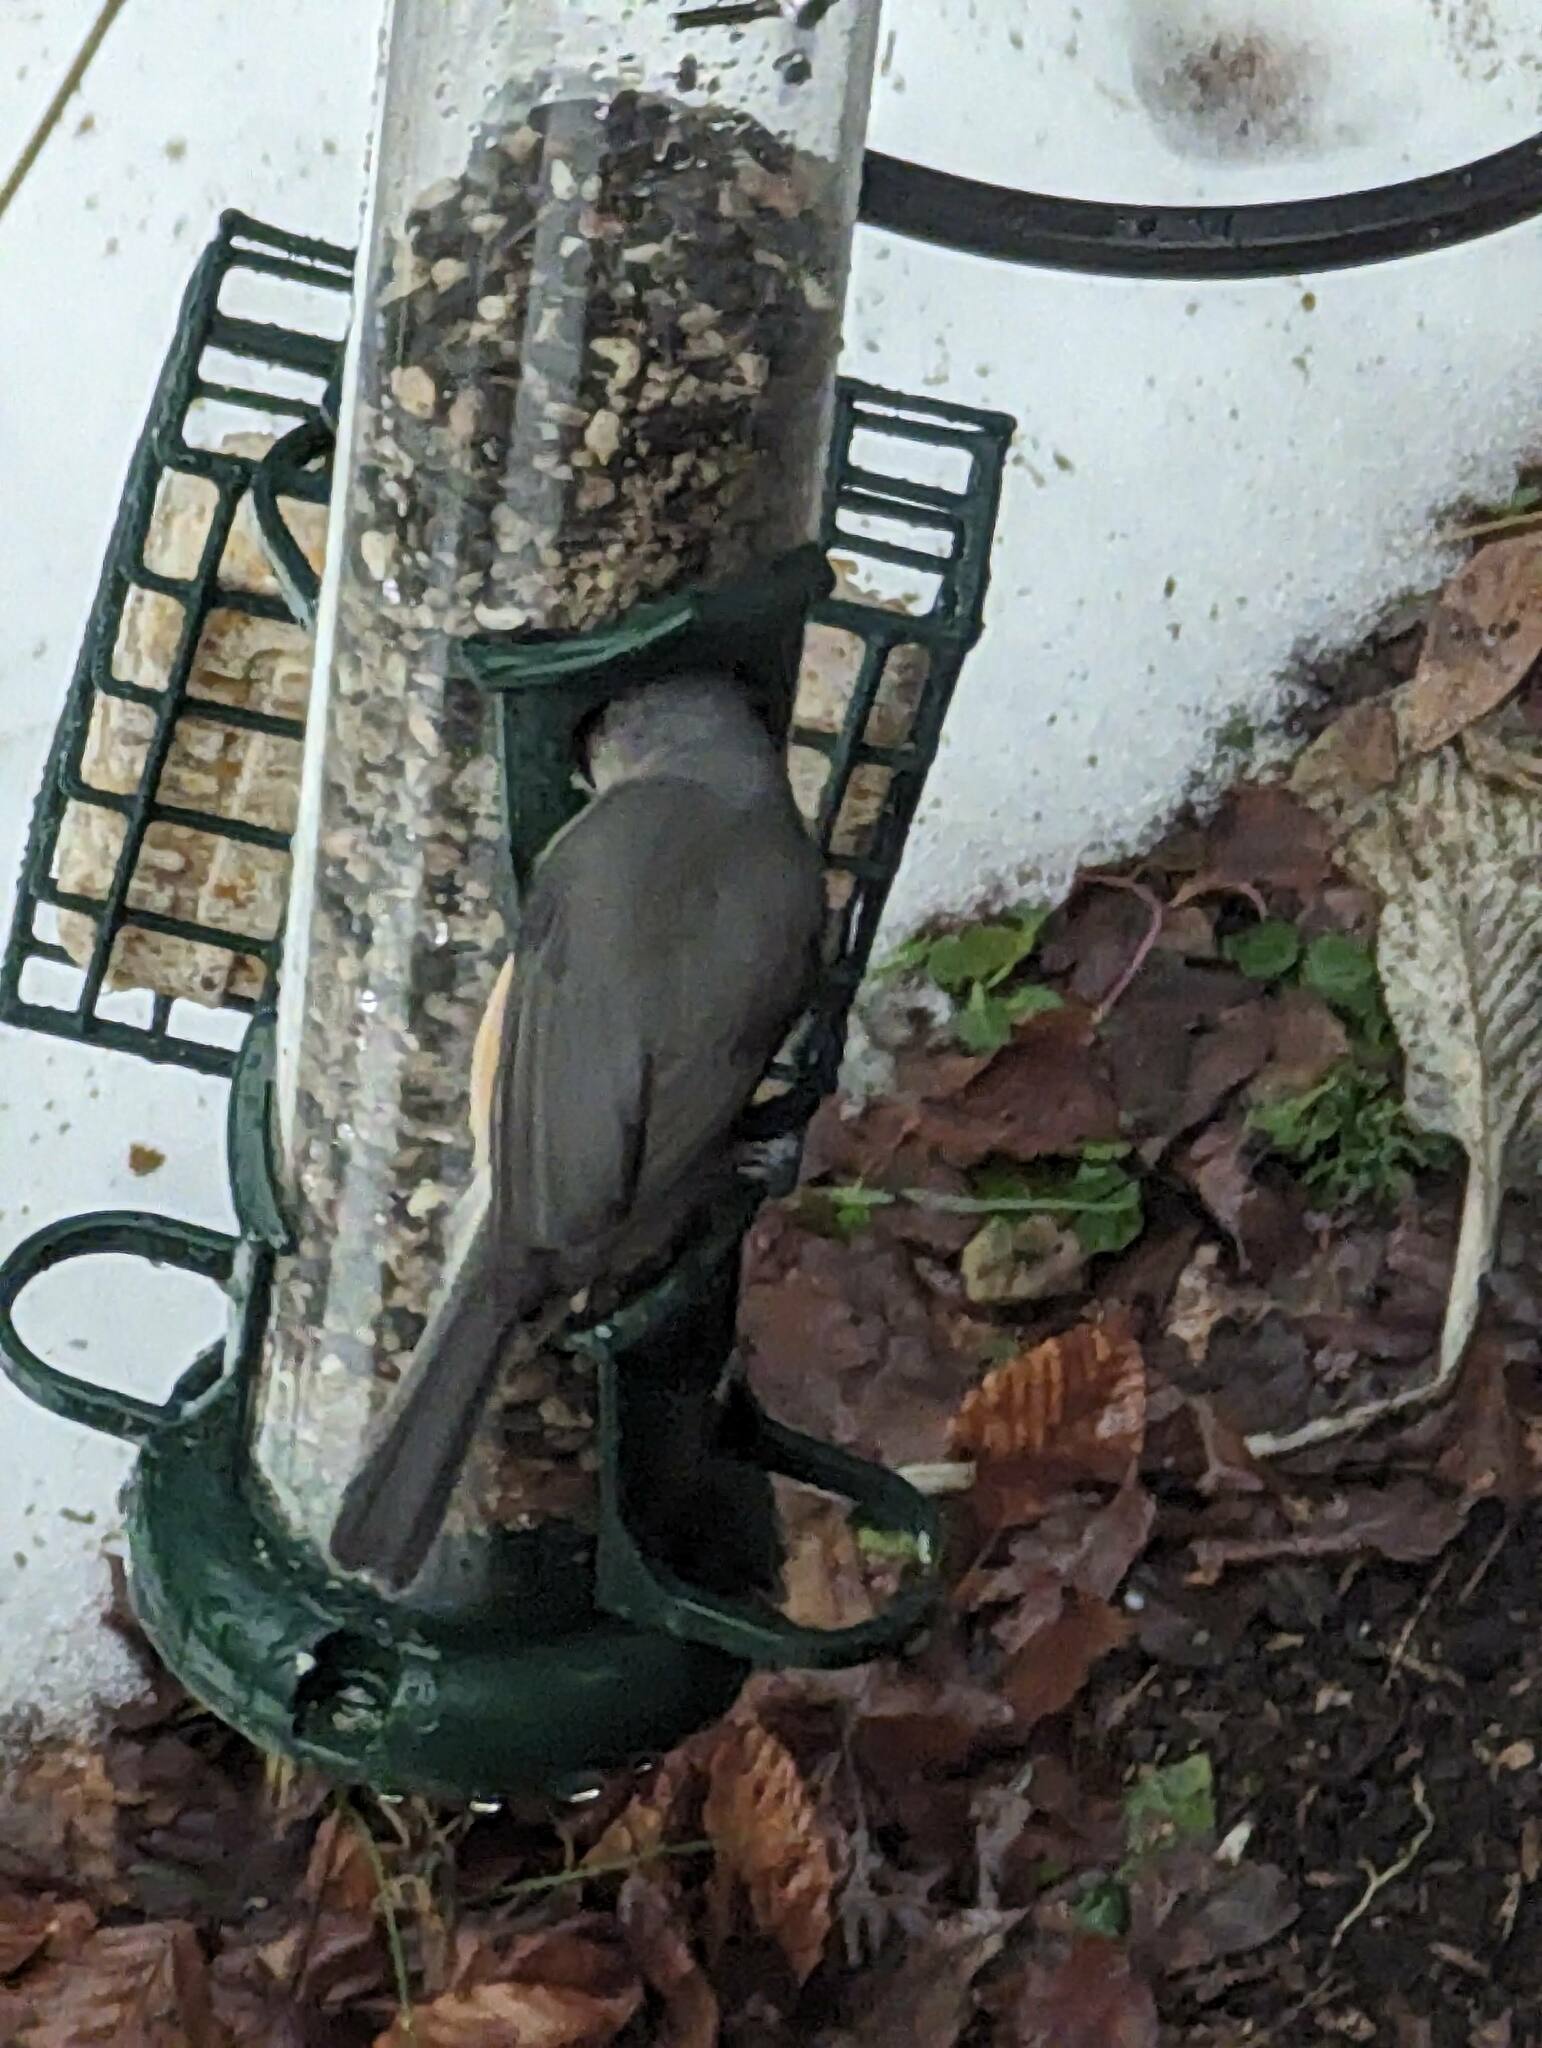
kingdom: Animalia
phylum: Chordata
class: Aves
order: Passeriformes
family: Paridae
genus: Baeolophus
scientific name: Baeolophus bicolor
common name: Tufted titmouse
